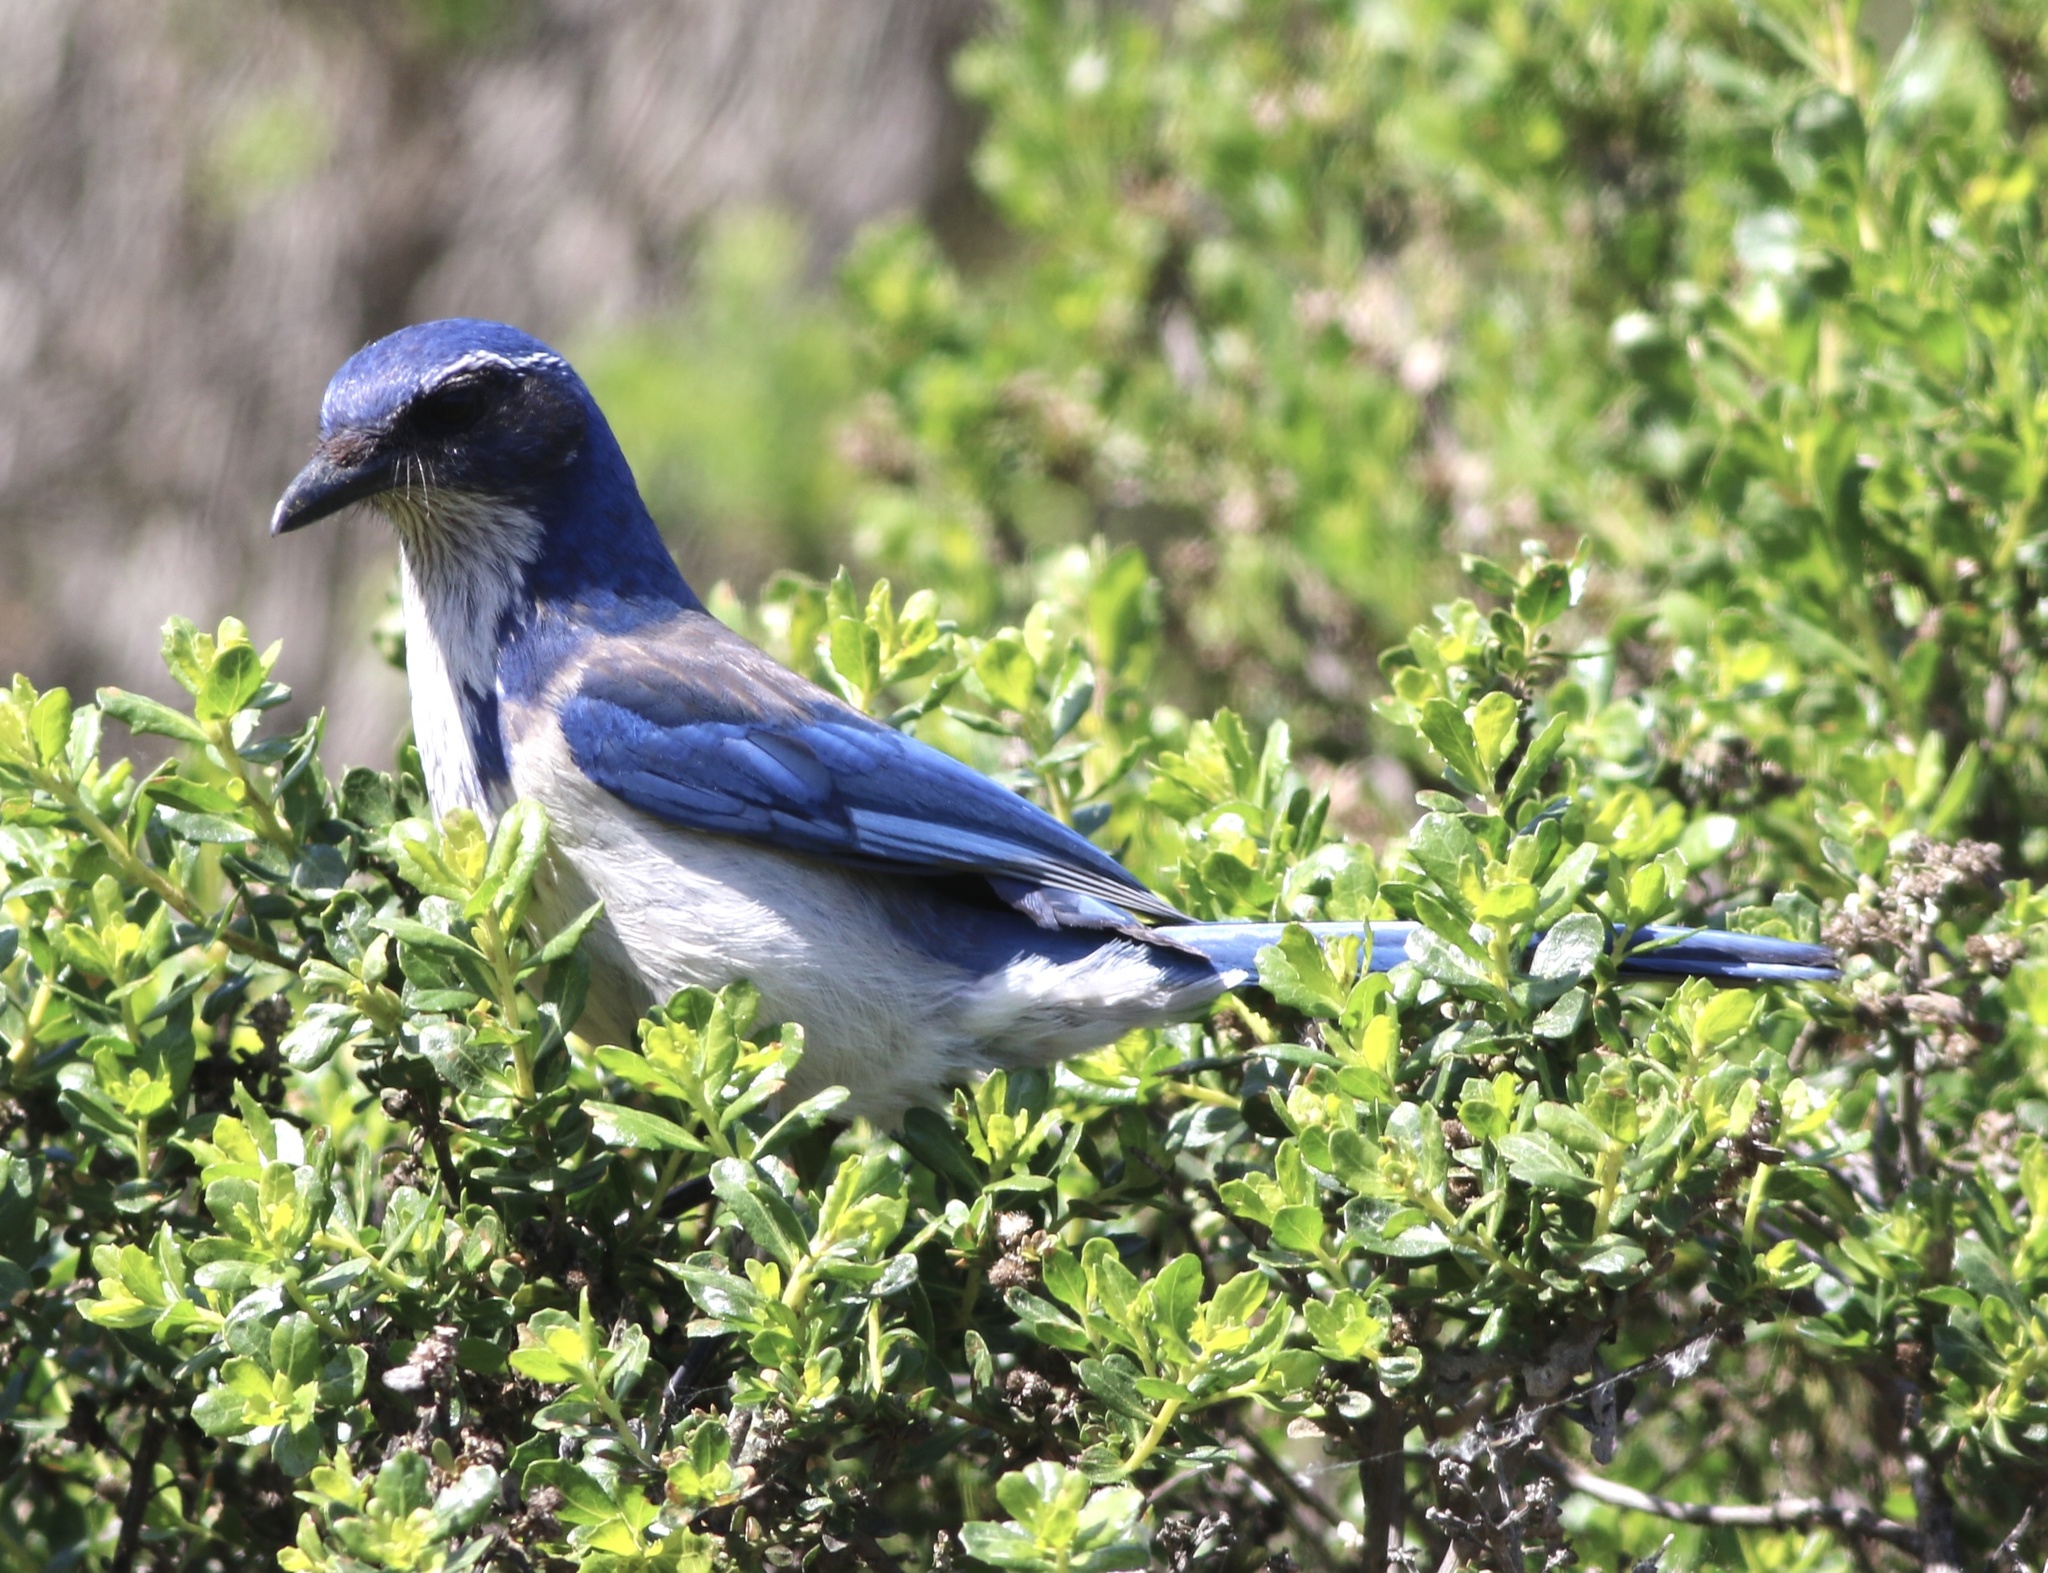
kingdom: Animalia
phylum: Chordata
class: Aves
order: Passeriformes
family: Corvidae
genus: Aphelocoma
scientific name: Aphelocoma californica
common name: California scrub-jay
